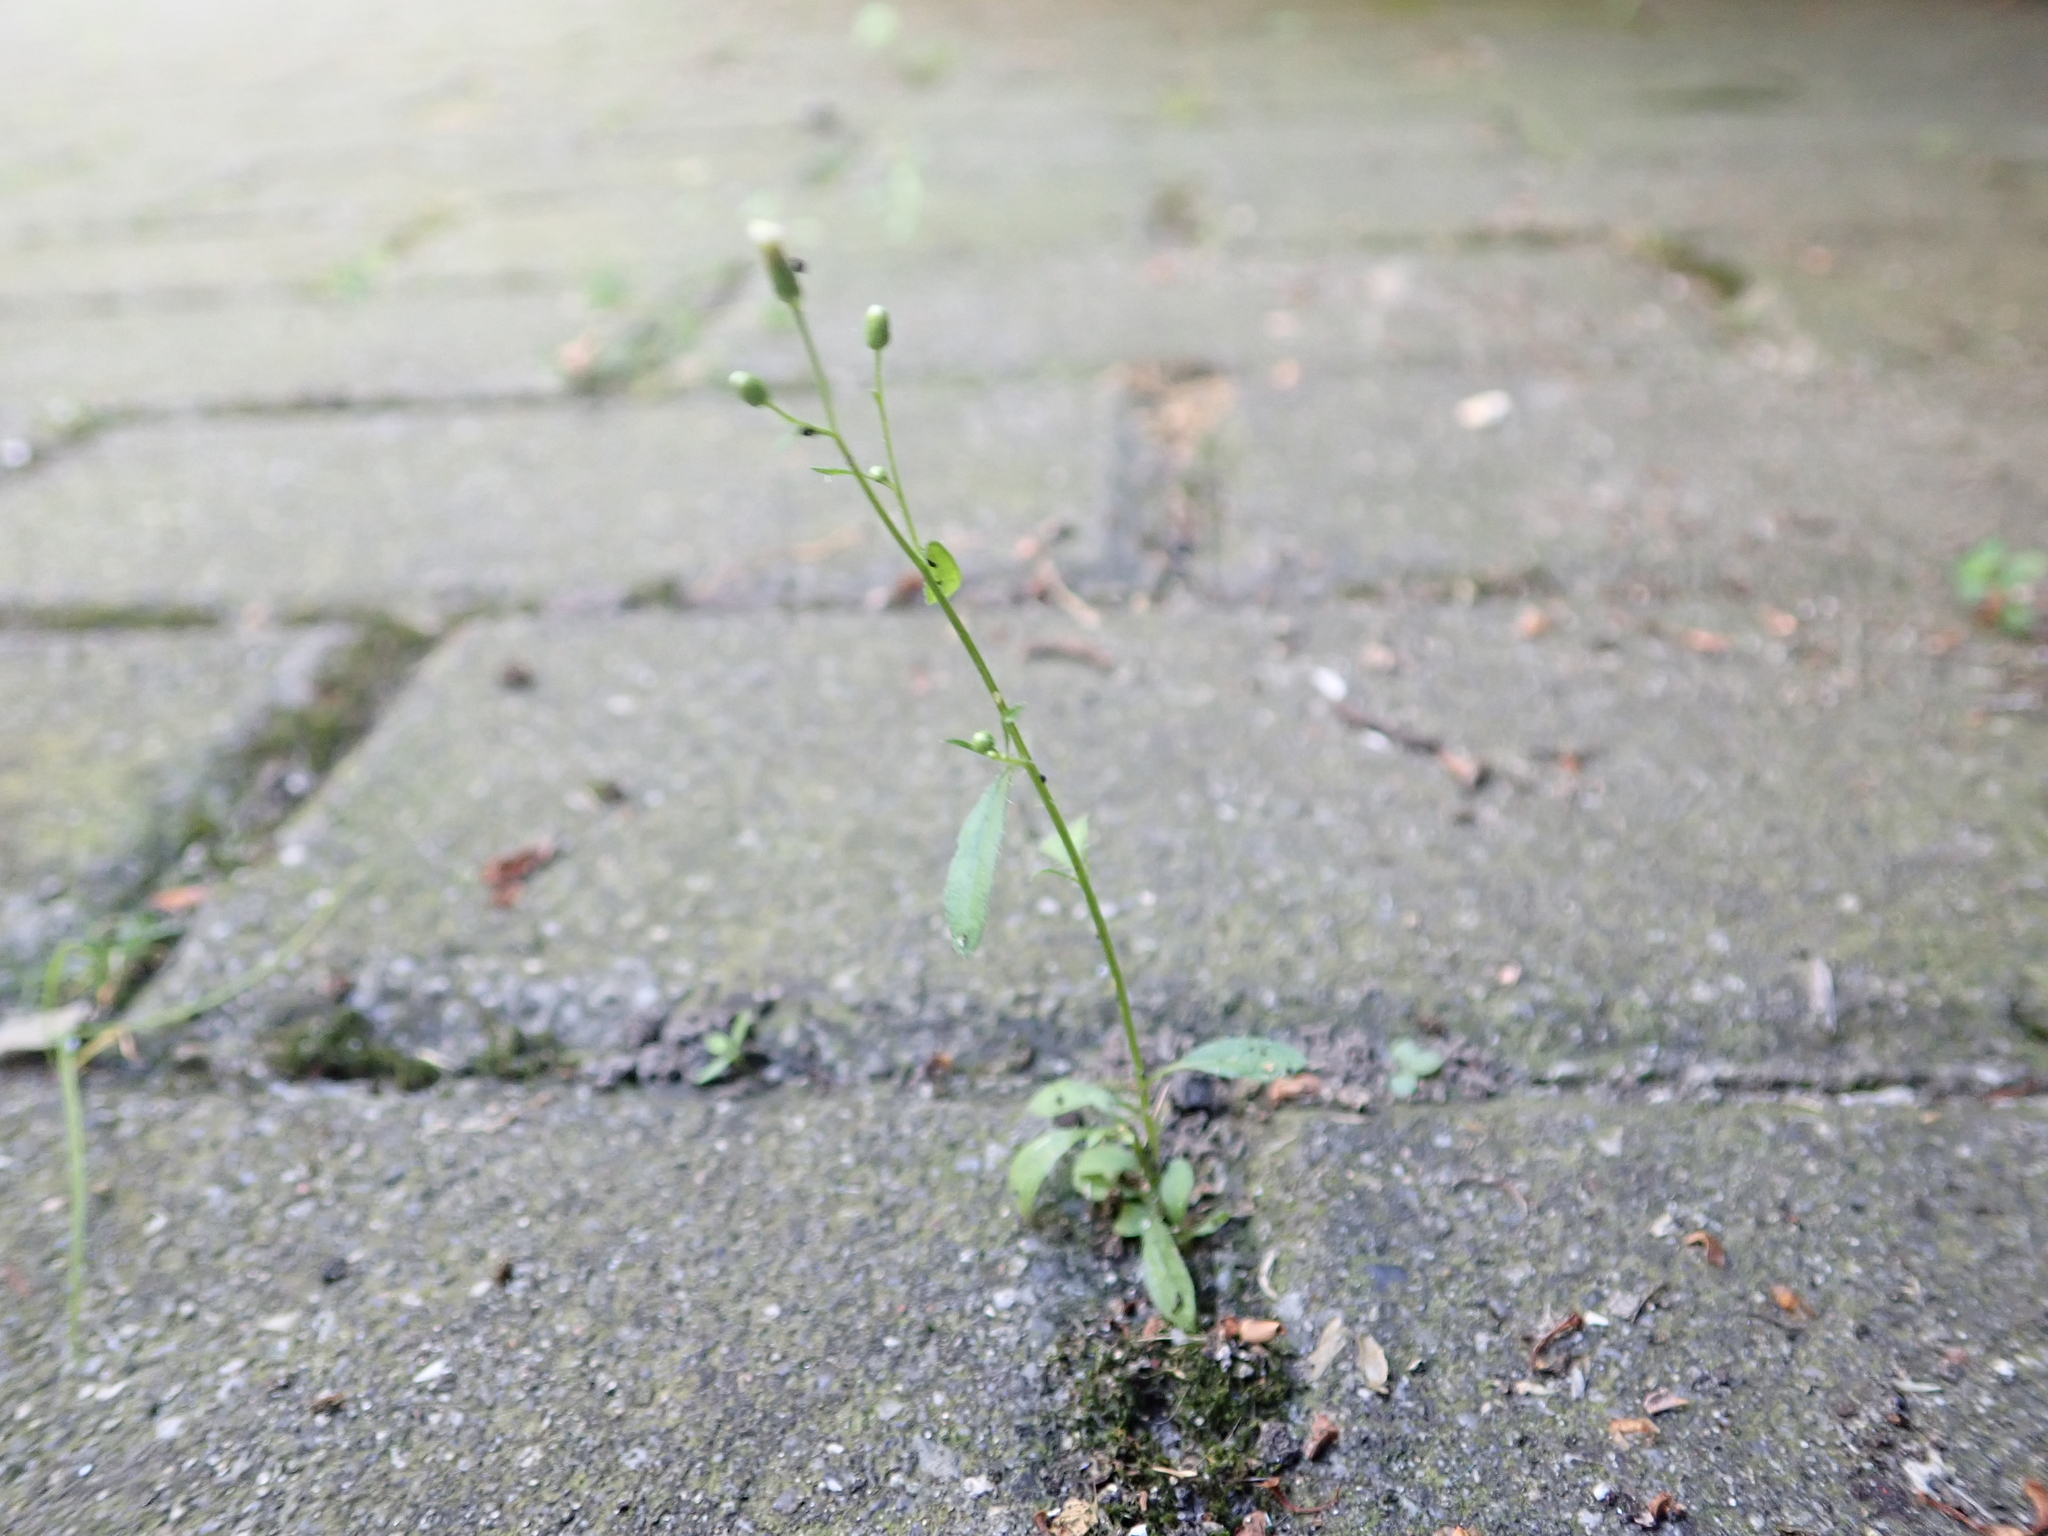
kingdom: Plantae
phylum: Tracheophyta
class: Magnoliopsida
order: Asterales
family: Asteraceae
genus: Erigeron
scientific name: Erigeron canadensis
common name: Canadian fleabane
